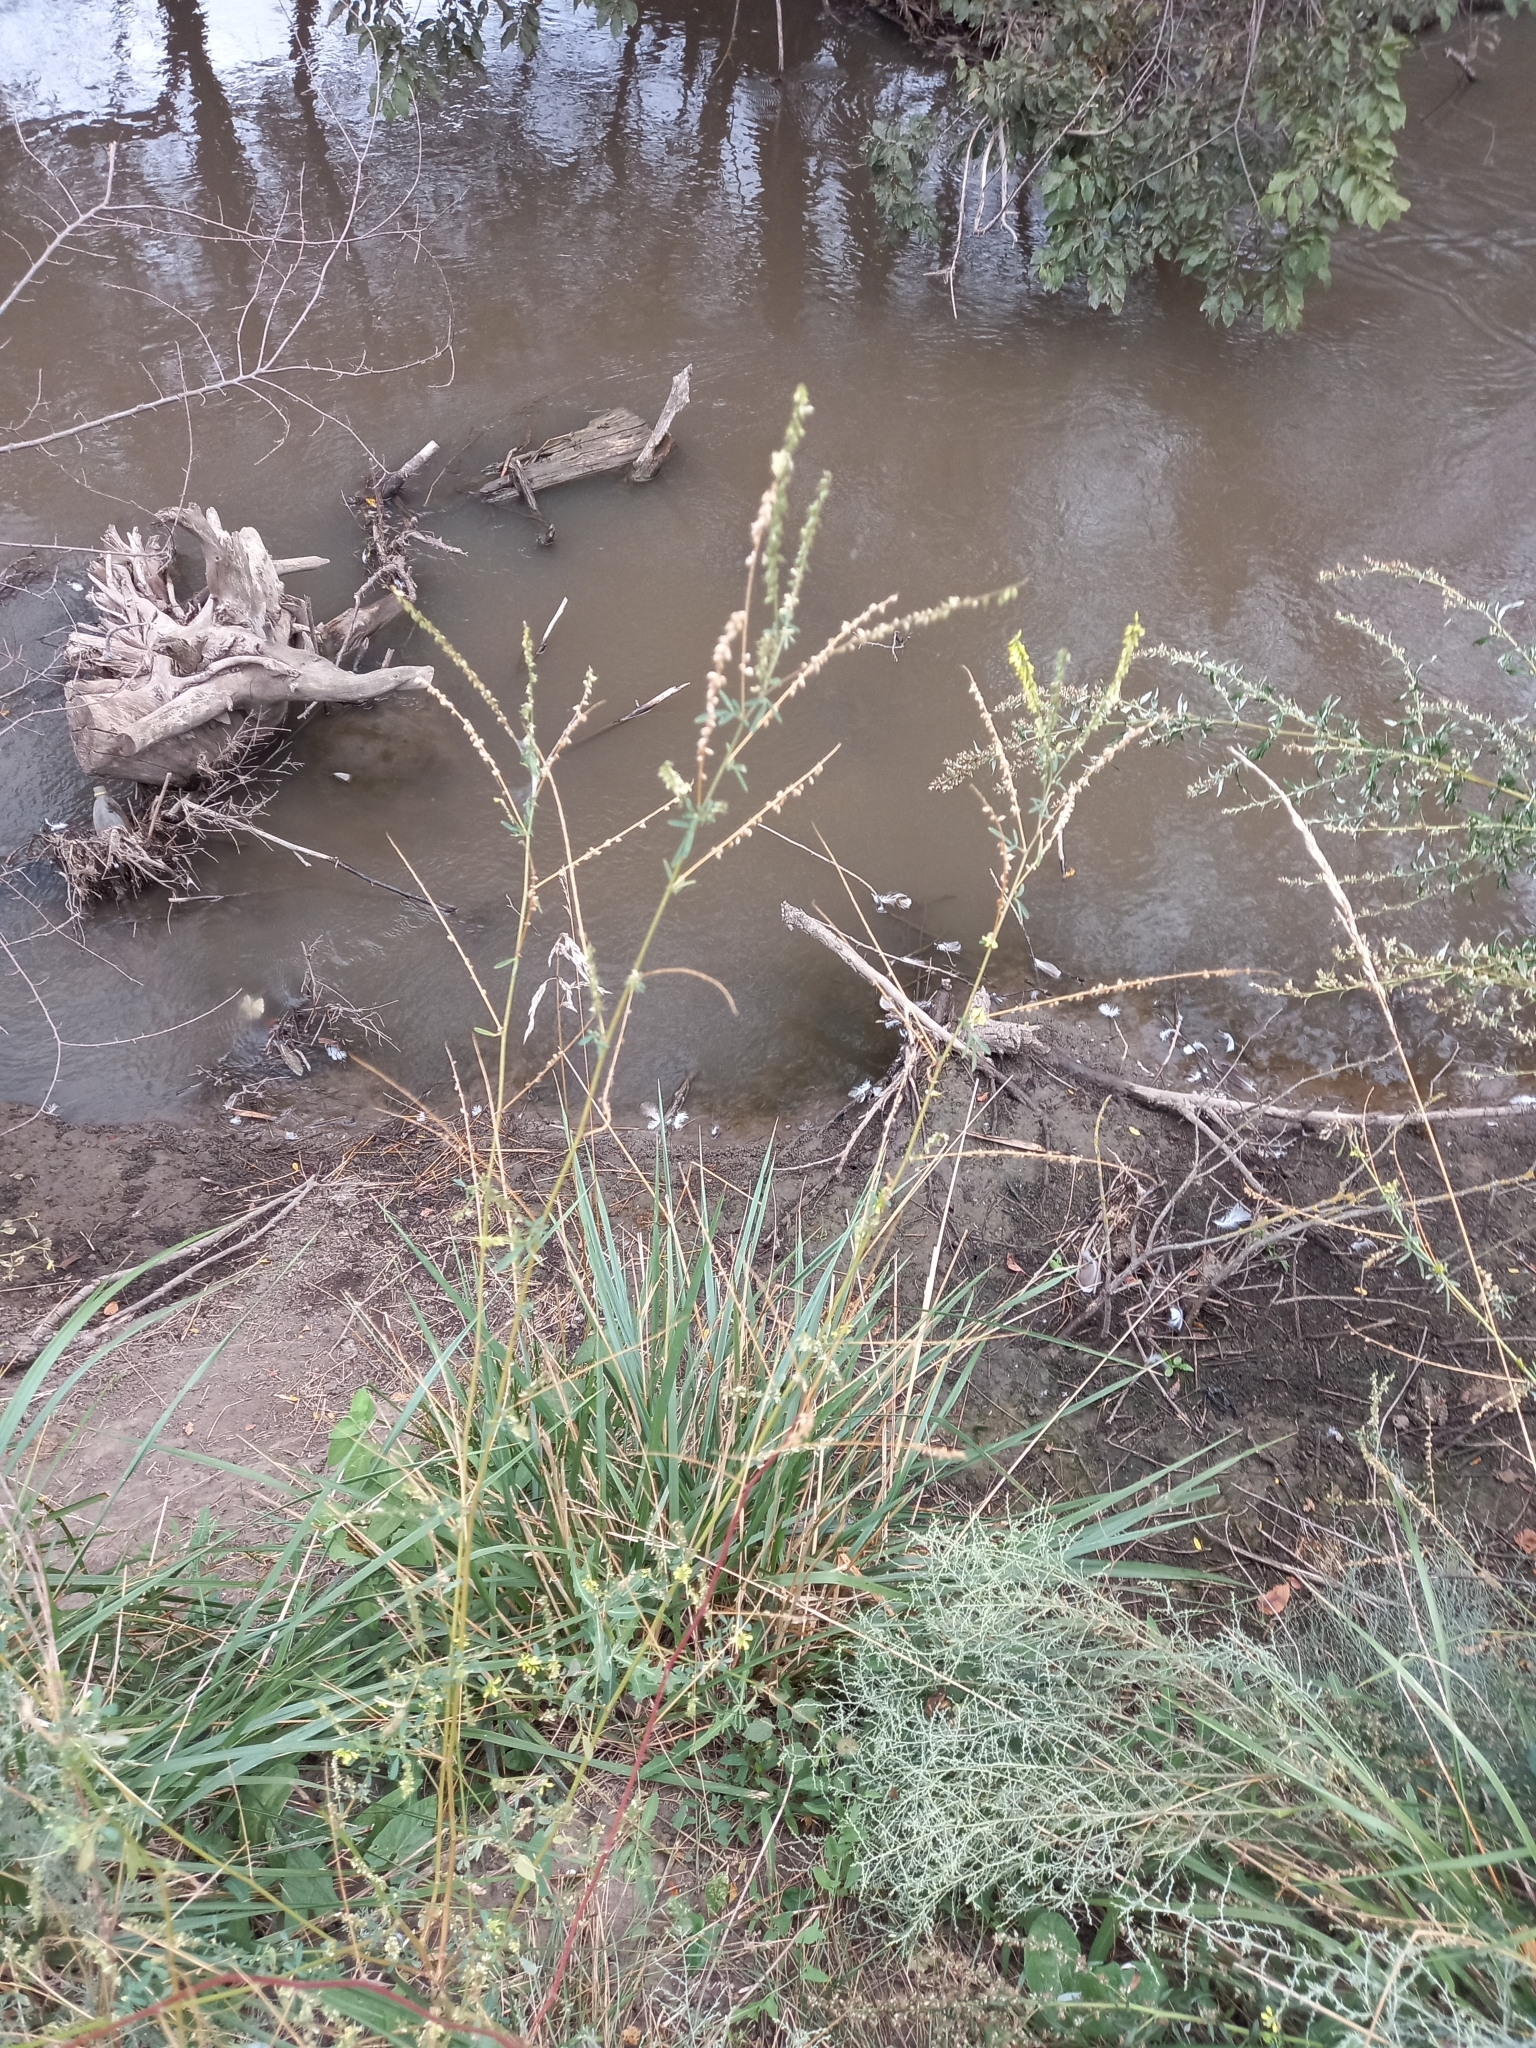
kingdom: Plantae
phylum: Tracheophyta
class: Magnoliopsida
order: Fabales
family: Fabaceae
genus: Melilotus
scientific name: Melilotus officinalis
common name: Sweetclover
